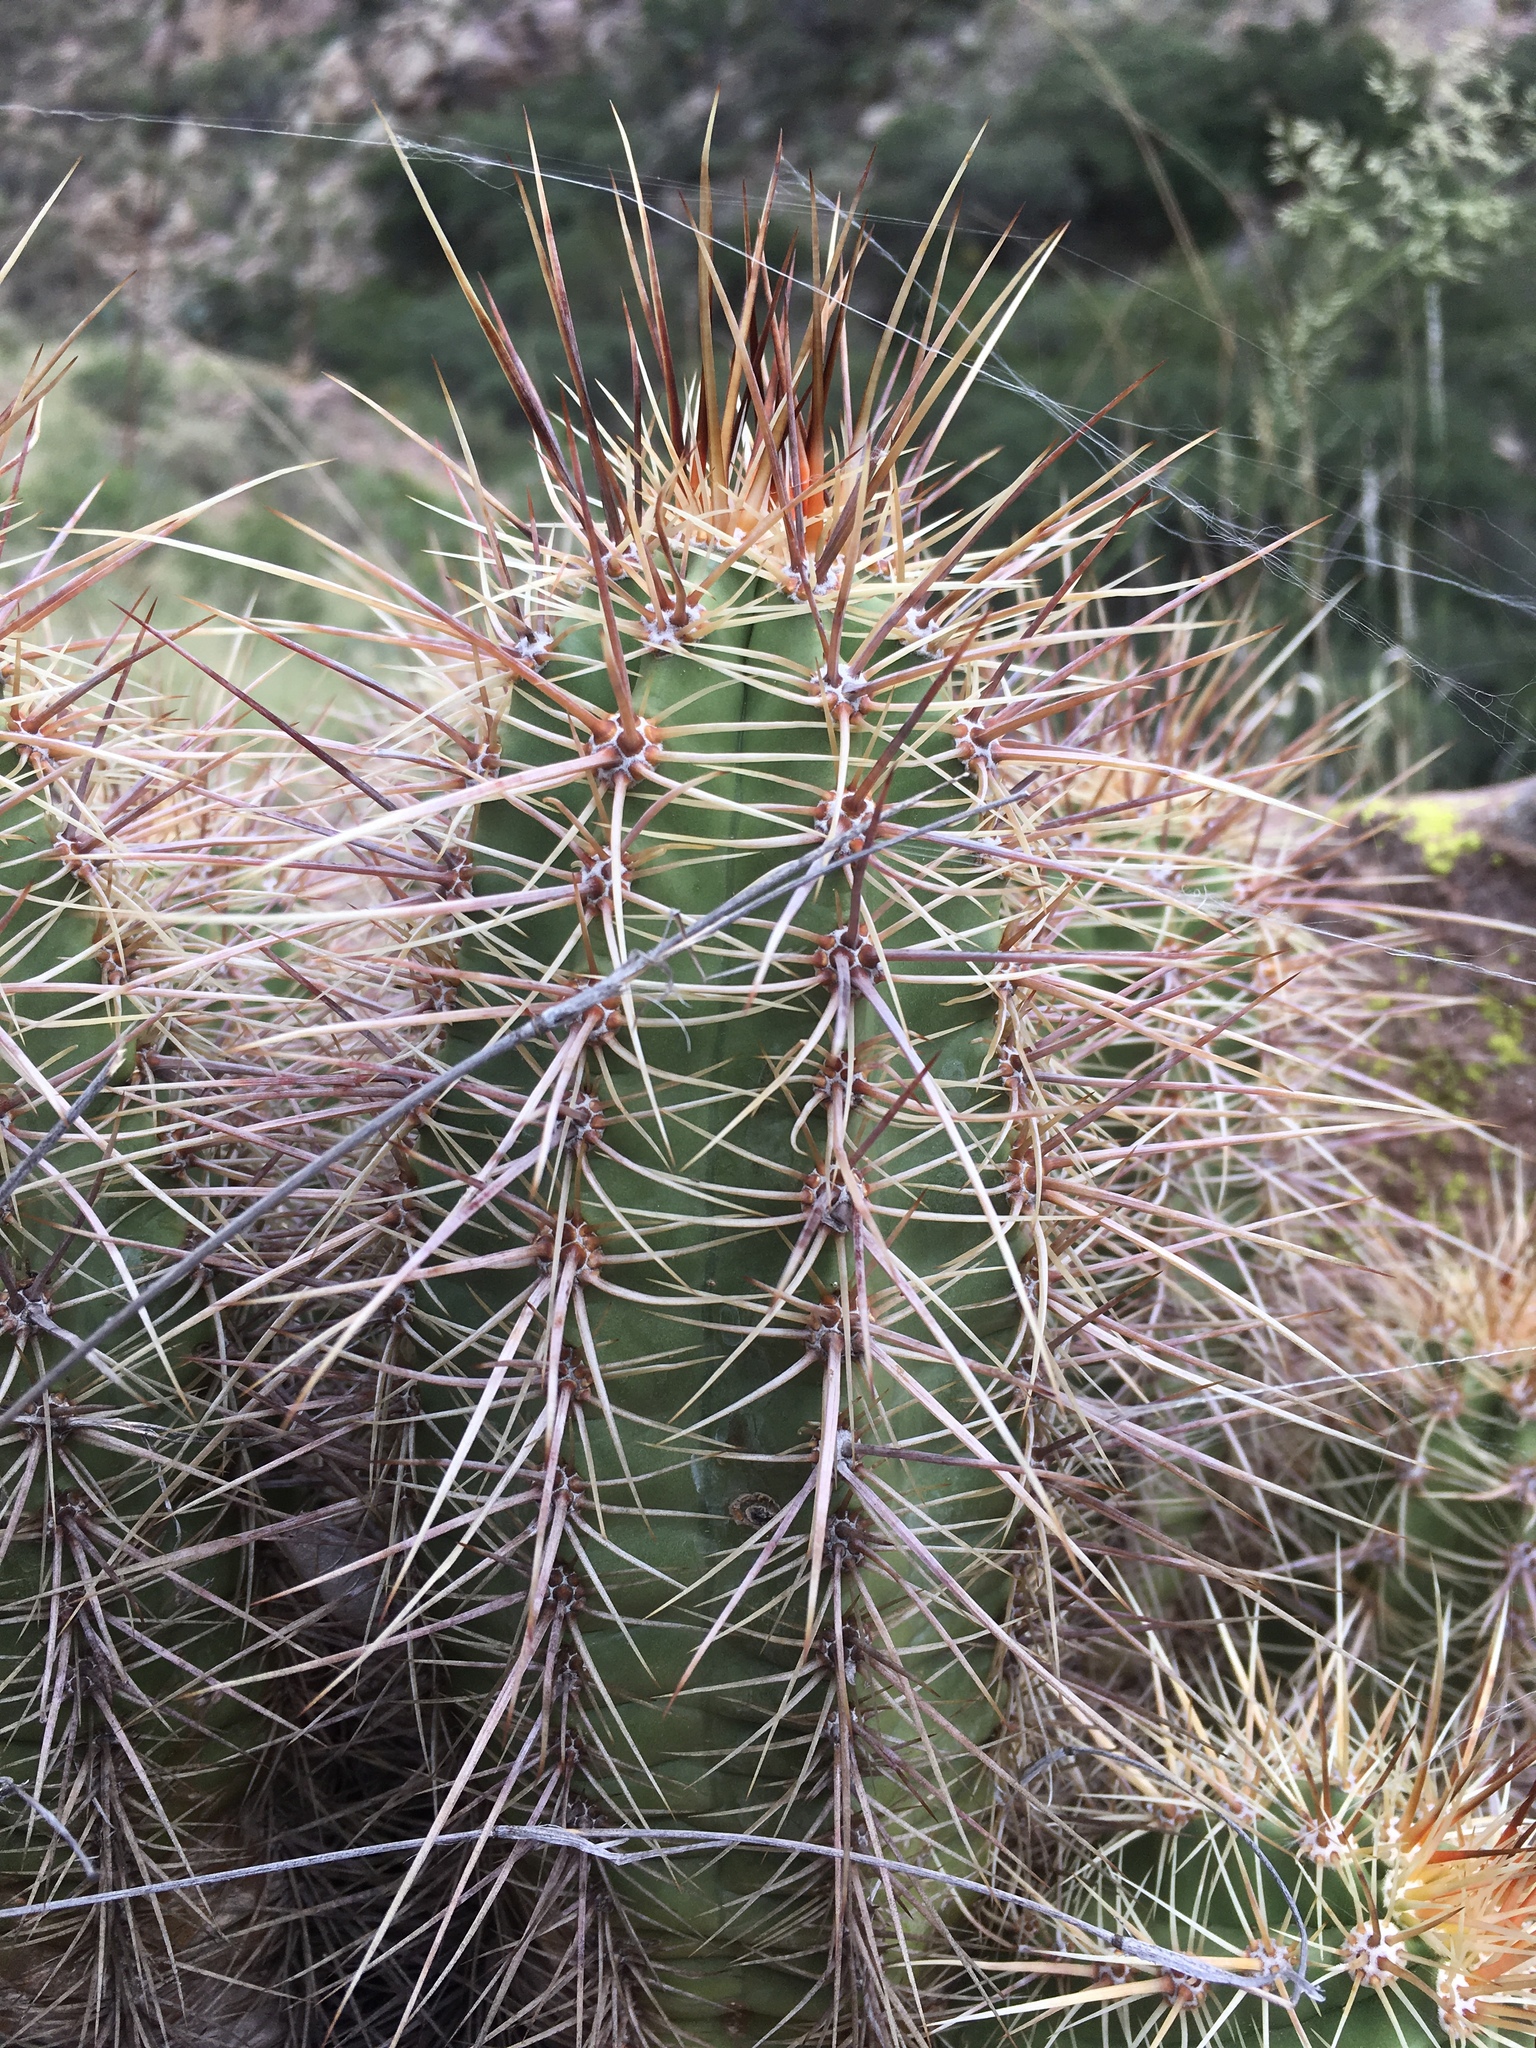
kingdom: Plantae
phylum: Tracheophyta
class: Magnoliopsida
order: Caryophyllales
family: Cactaceae
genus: Echinocereus
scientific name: Echinocereus arizonicus
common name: Arizona hedgehog cactus
